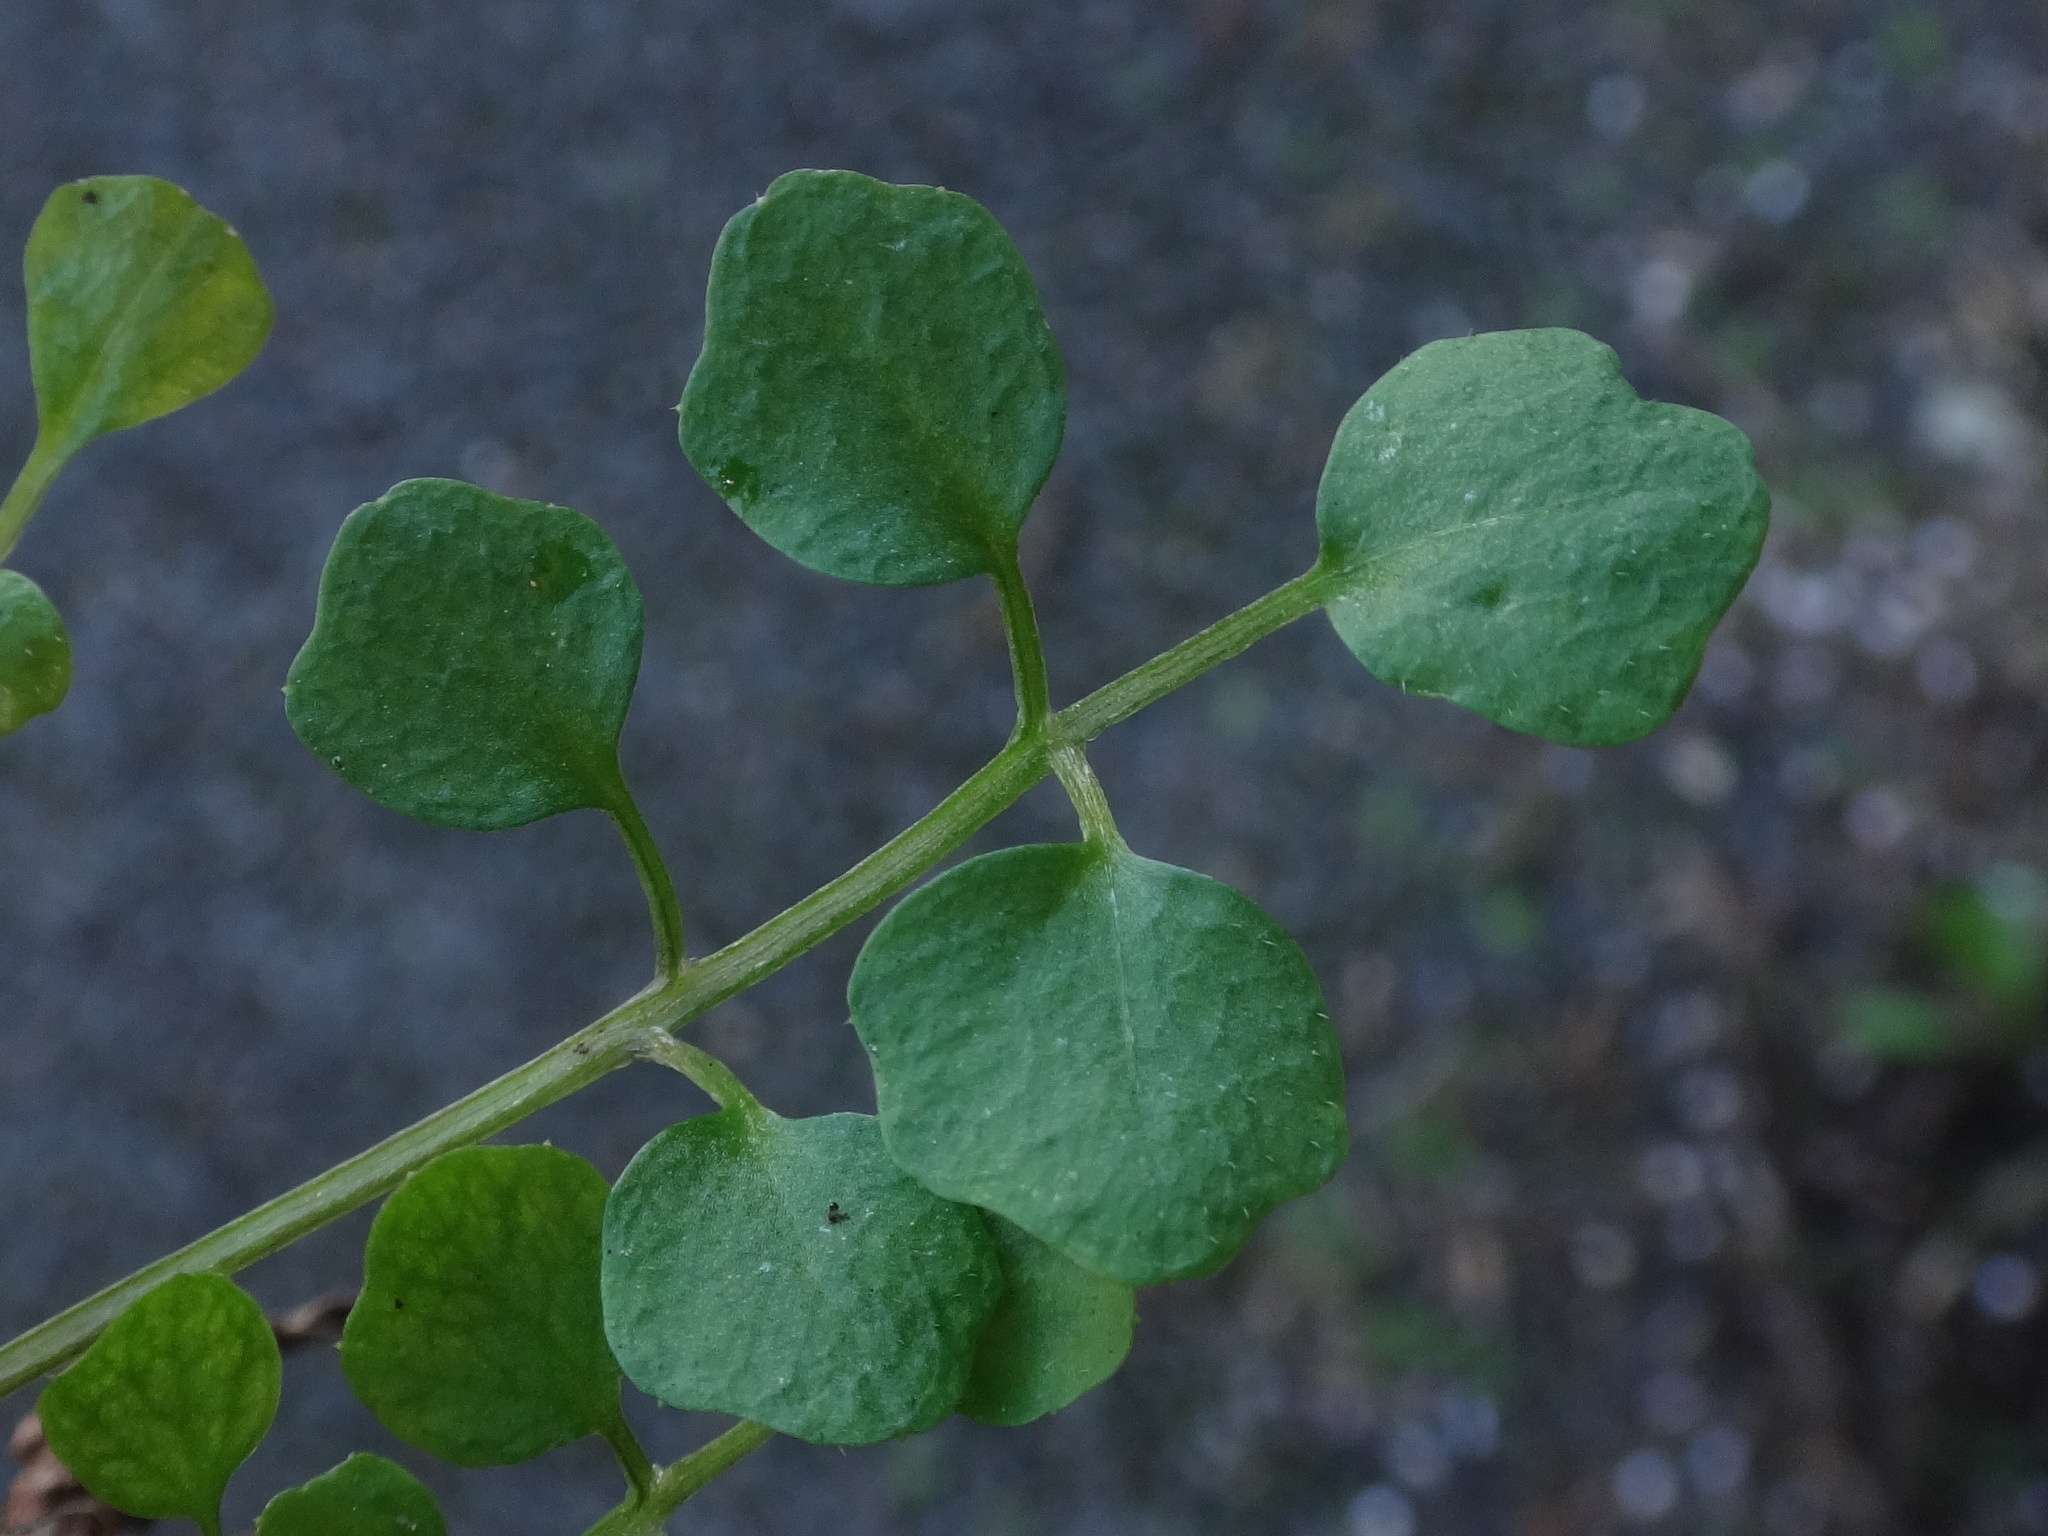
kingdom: Plantae
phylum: Tracheophyta
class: Magnoliopsida
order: Brassicales
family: Brassicaceae
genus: Cardamine
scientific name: Cardamine hirsuta
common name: Hairy bittercress
